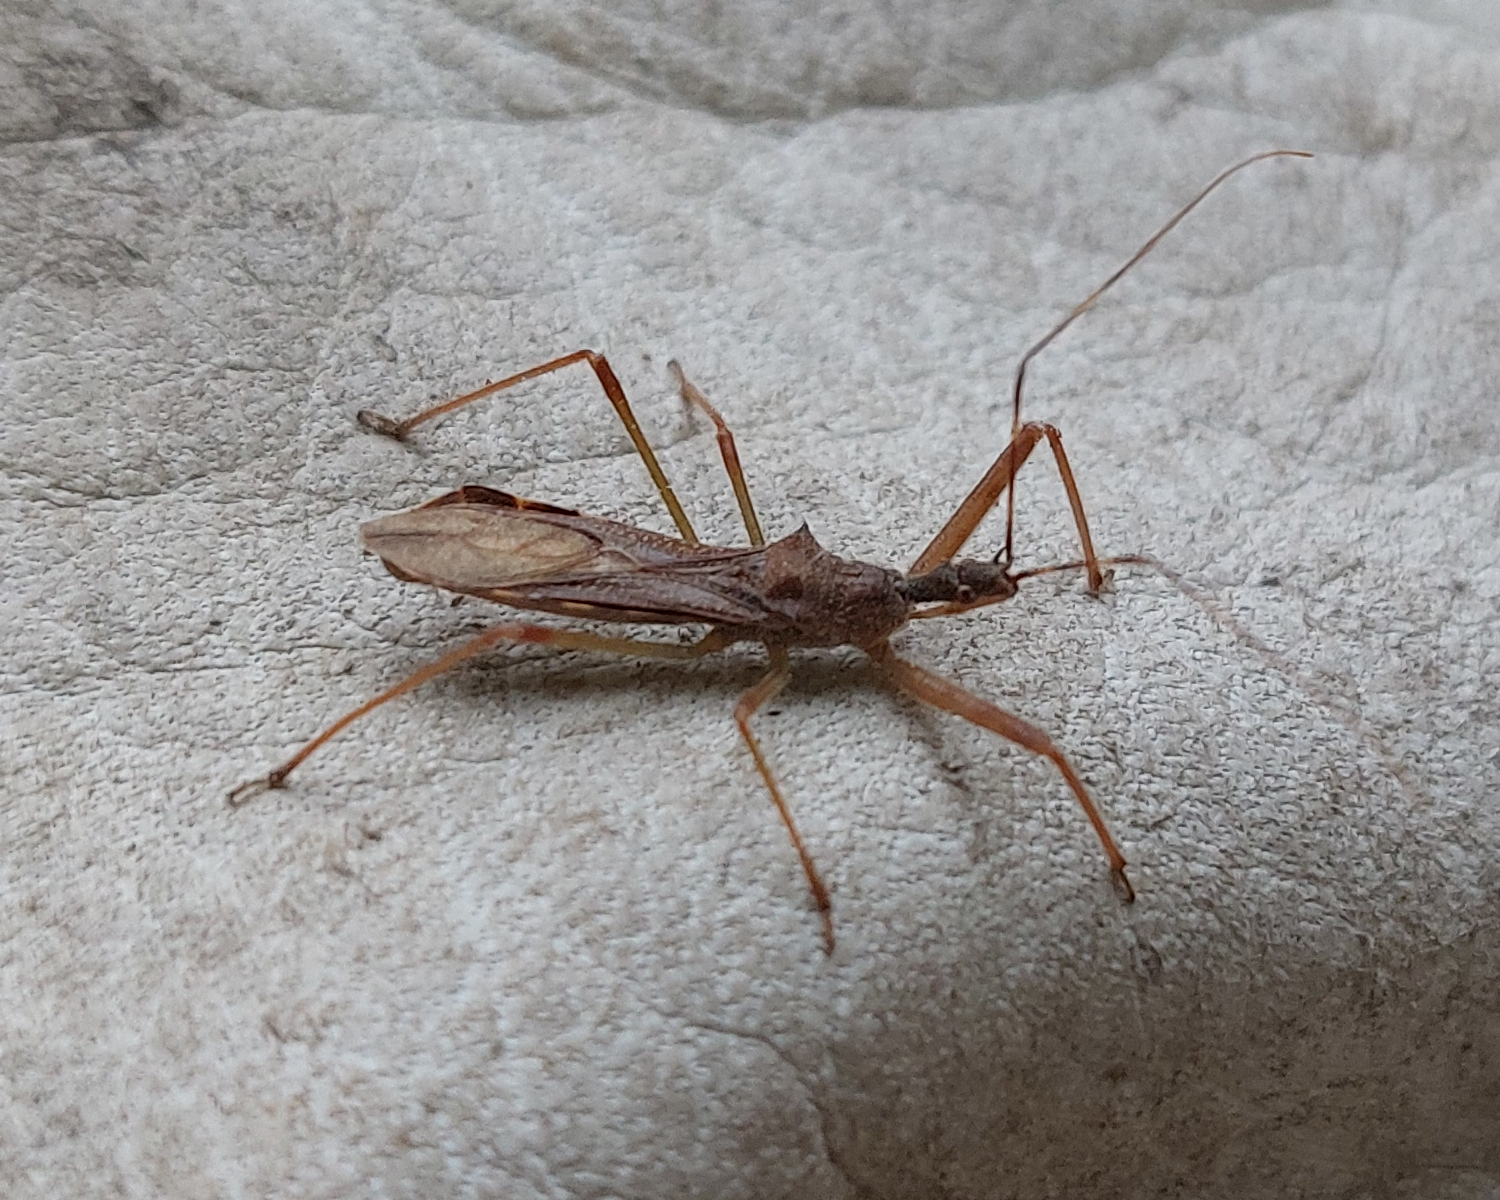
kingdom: Animalia
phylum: Arthropoda
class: Insecta
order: Hemiptera
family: Reduviidae
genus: Nagusta
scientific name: Nagusta goedelii
